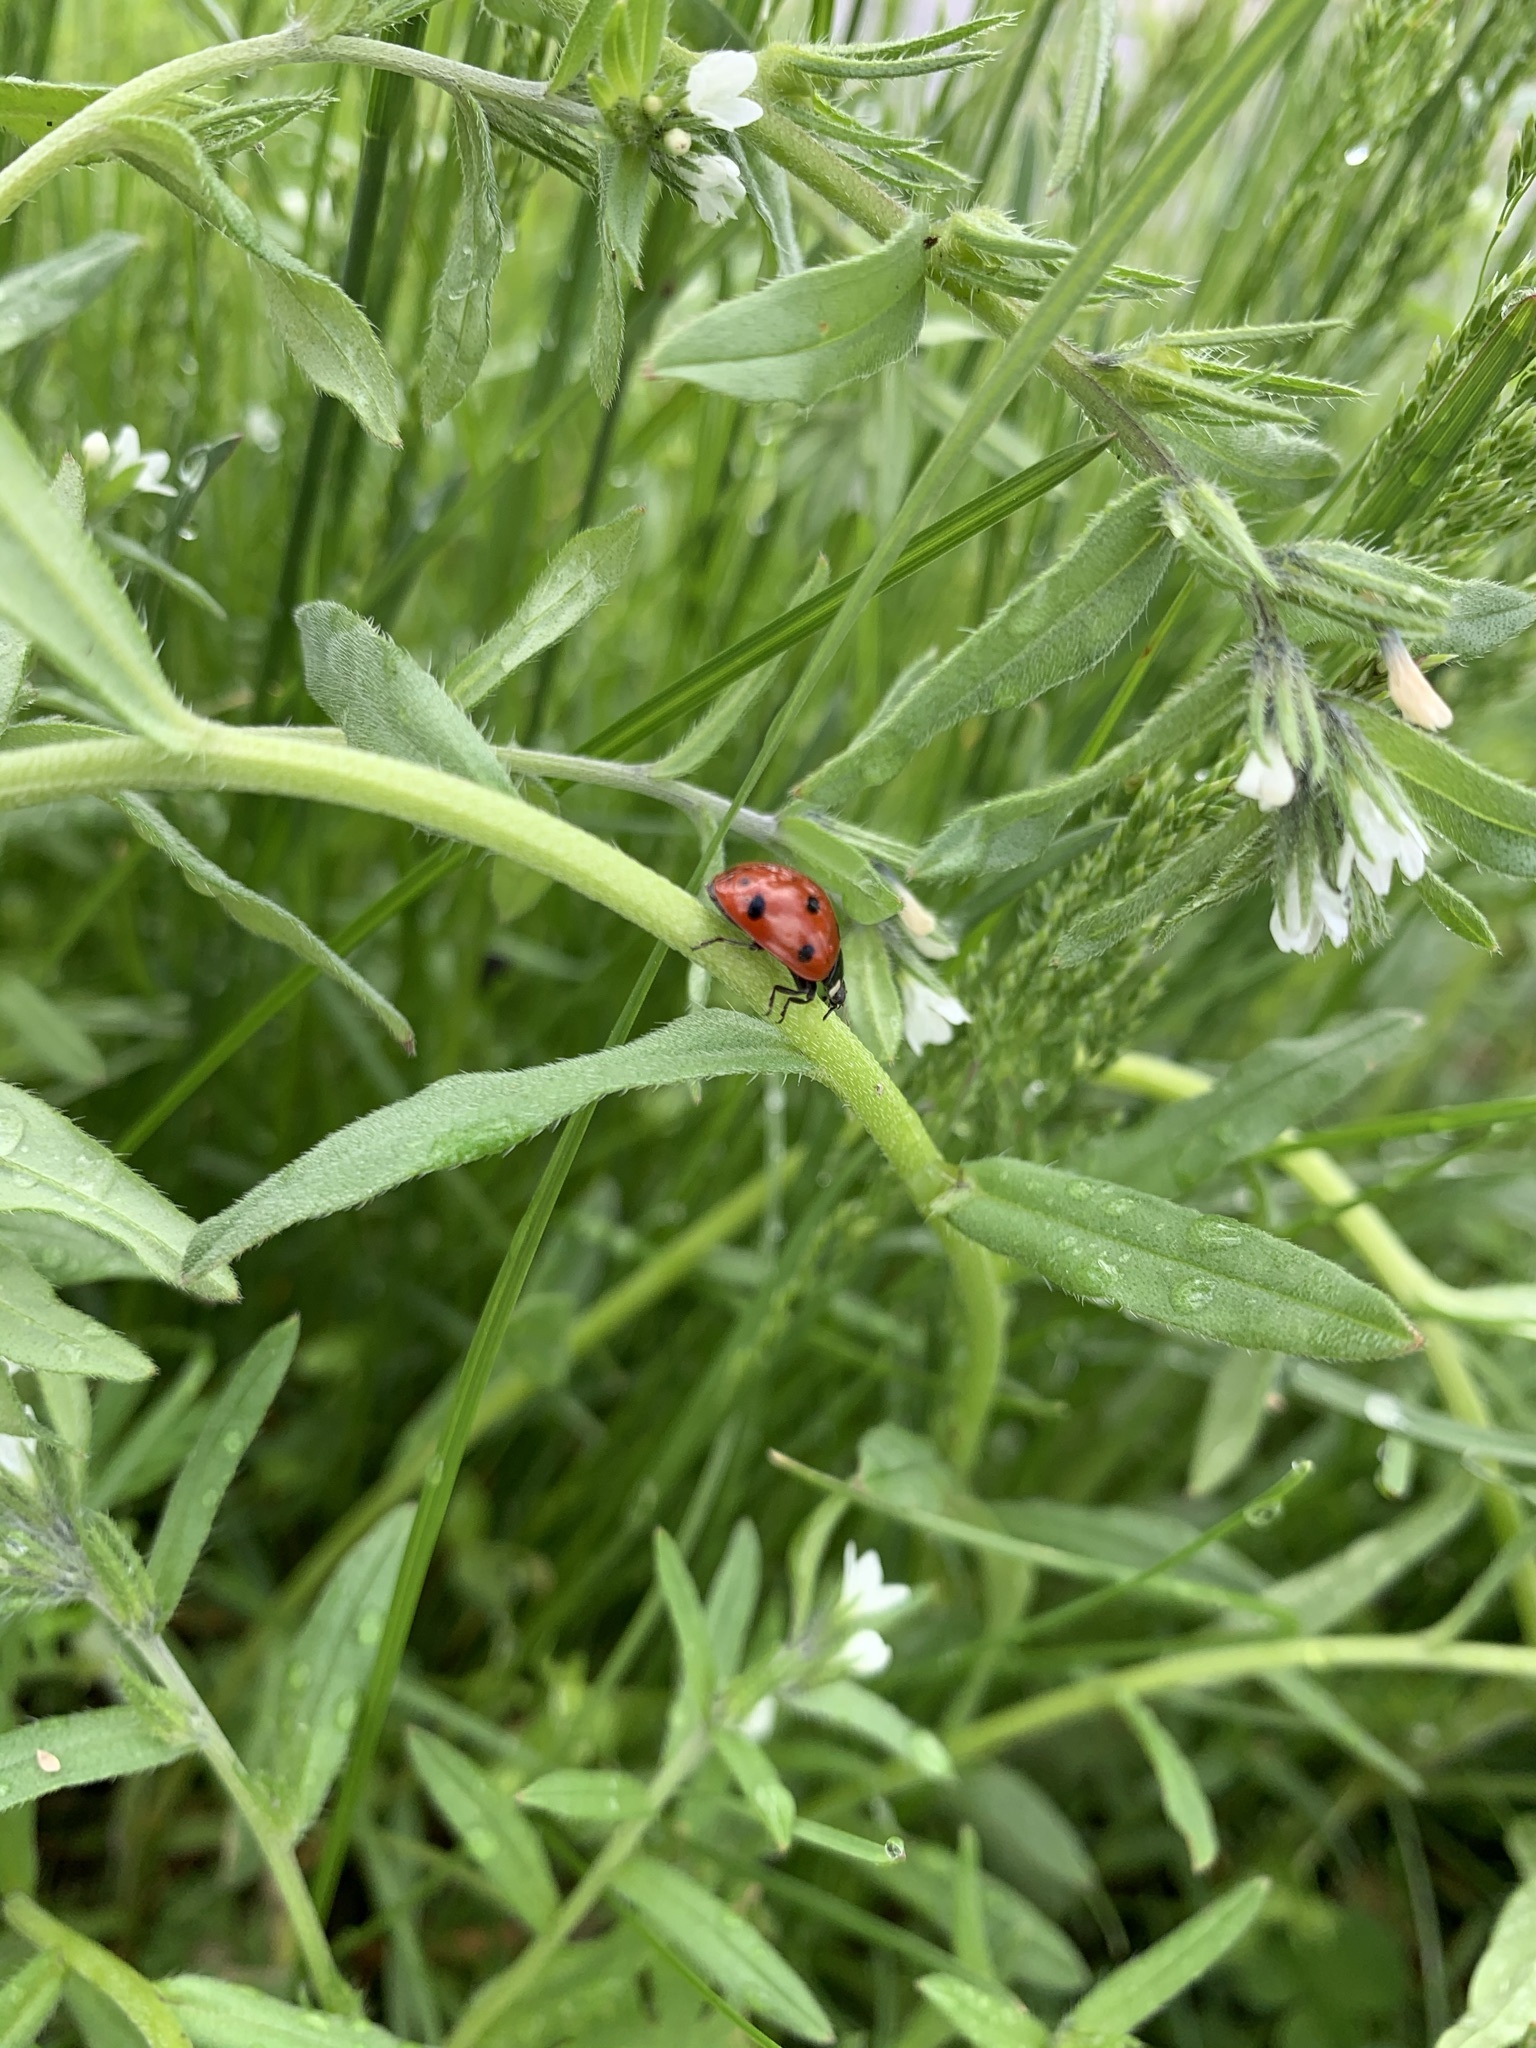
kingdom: Animalia
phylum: Arthropoda
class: Insecta
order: Coleoptera
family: Coccinellidae
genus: Coccinella
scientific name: Coccinella septempunctata
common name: Sevenspotted lady beetle
